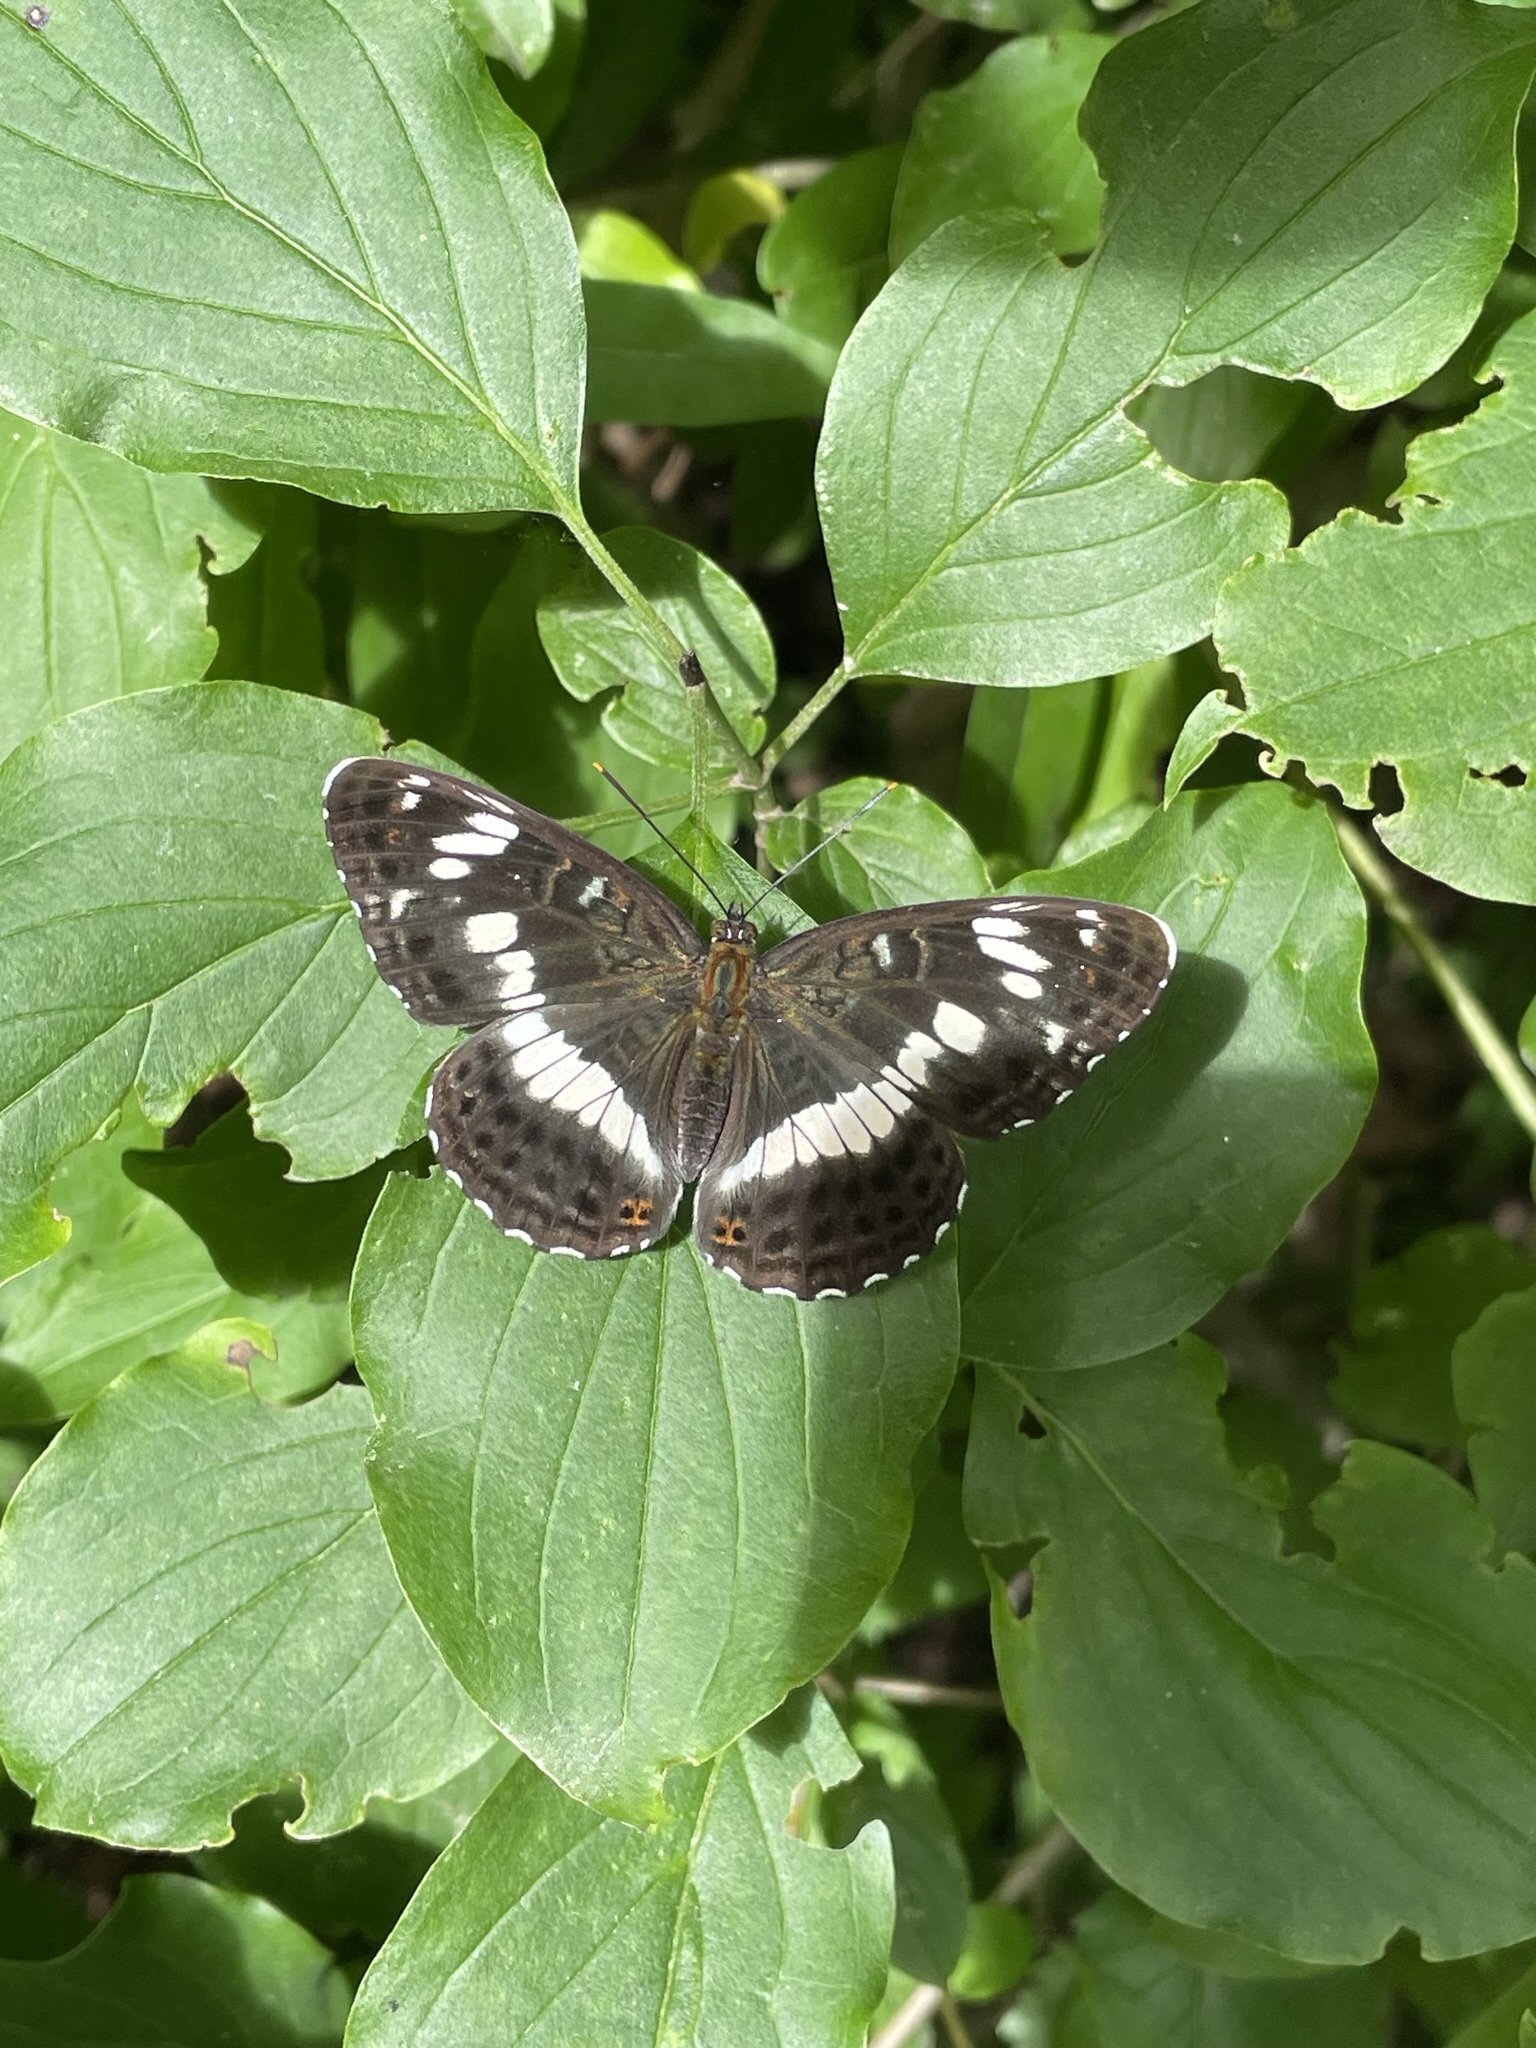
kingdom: Animalia
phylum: Arthropoda
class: Insecta
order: Lepidoptera
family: Nymphalidae
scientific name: Nymphalidae
